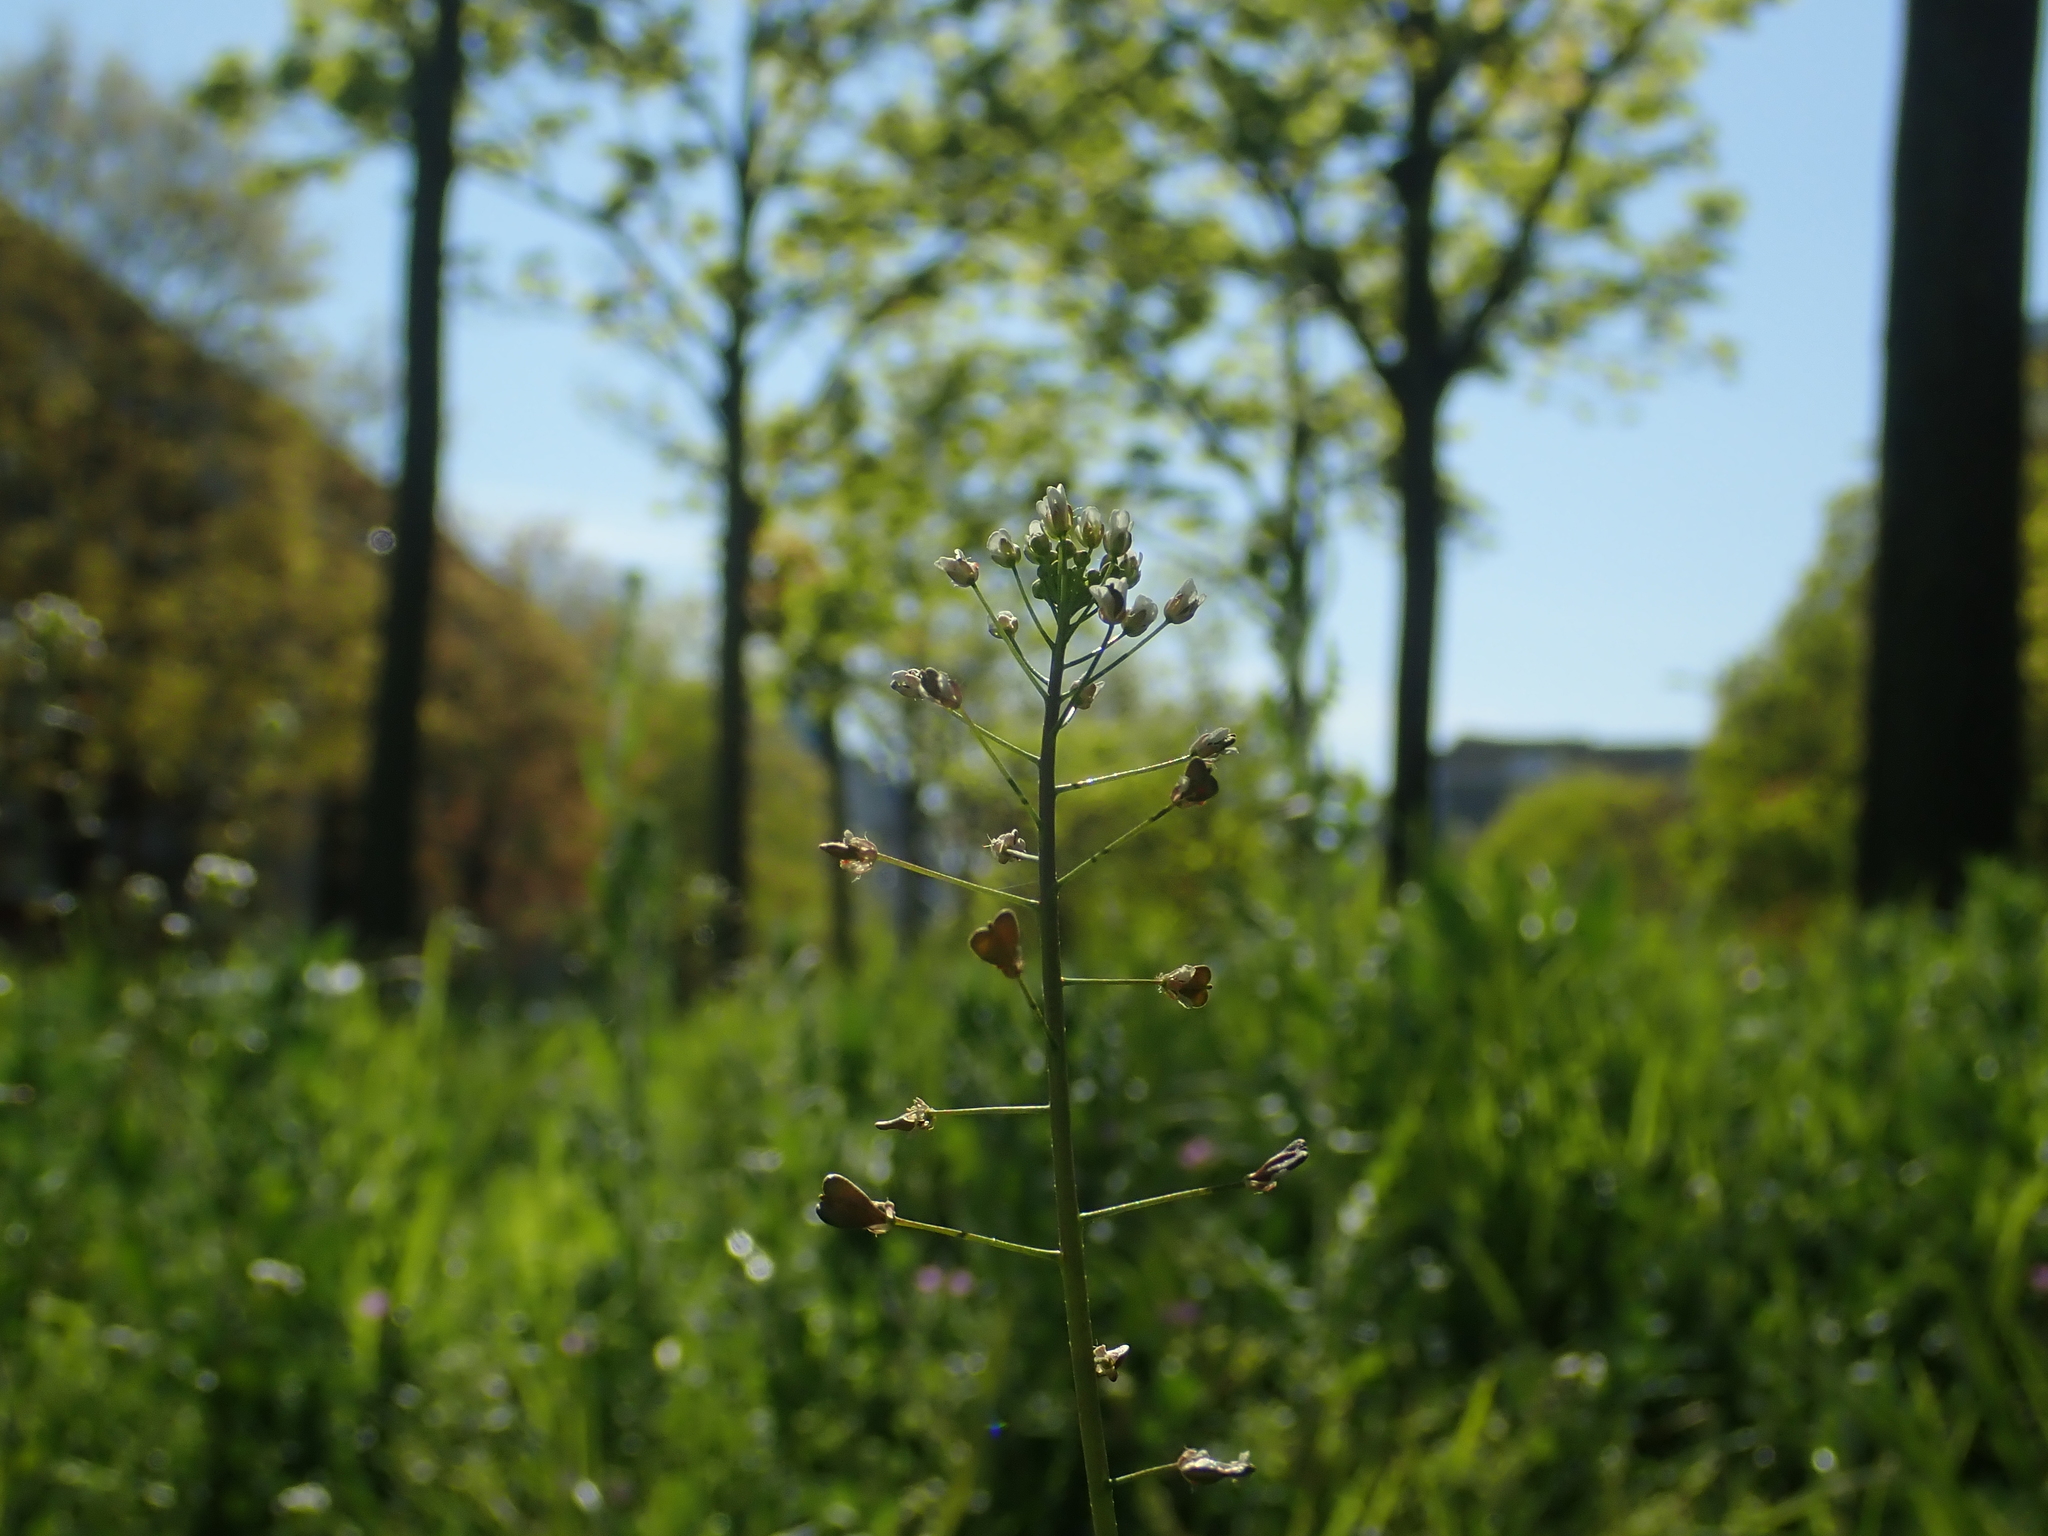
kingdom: Plantae
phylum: Tracheophyta
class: Magnoliopsida
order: Brassicales
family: Brassicaceae
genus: Capsella
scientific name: Capsella bursa-pastoris
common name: Shepherd's purse
